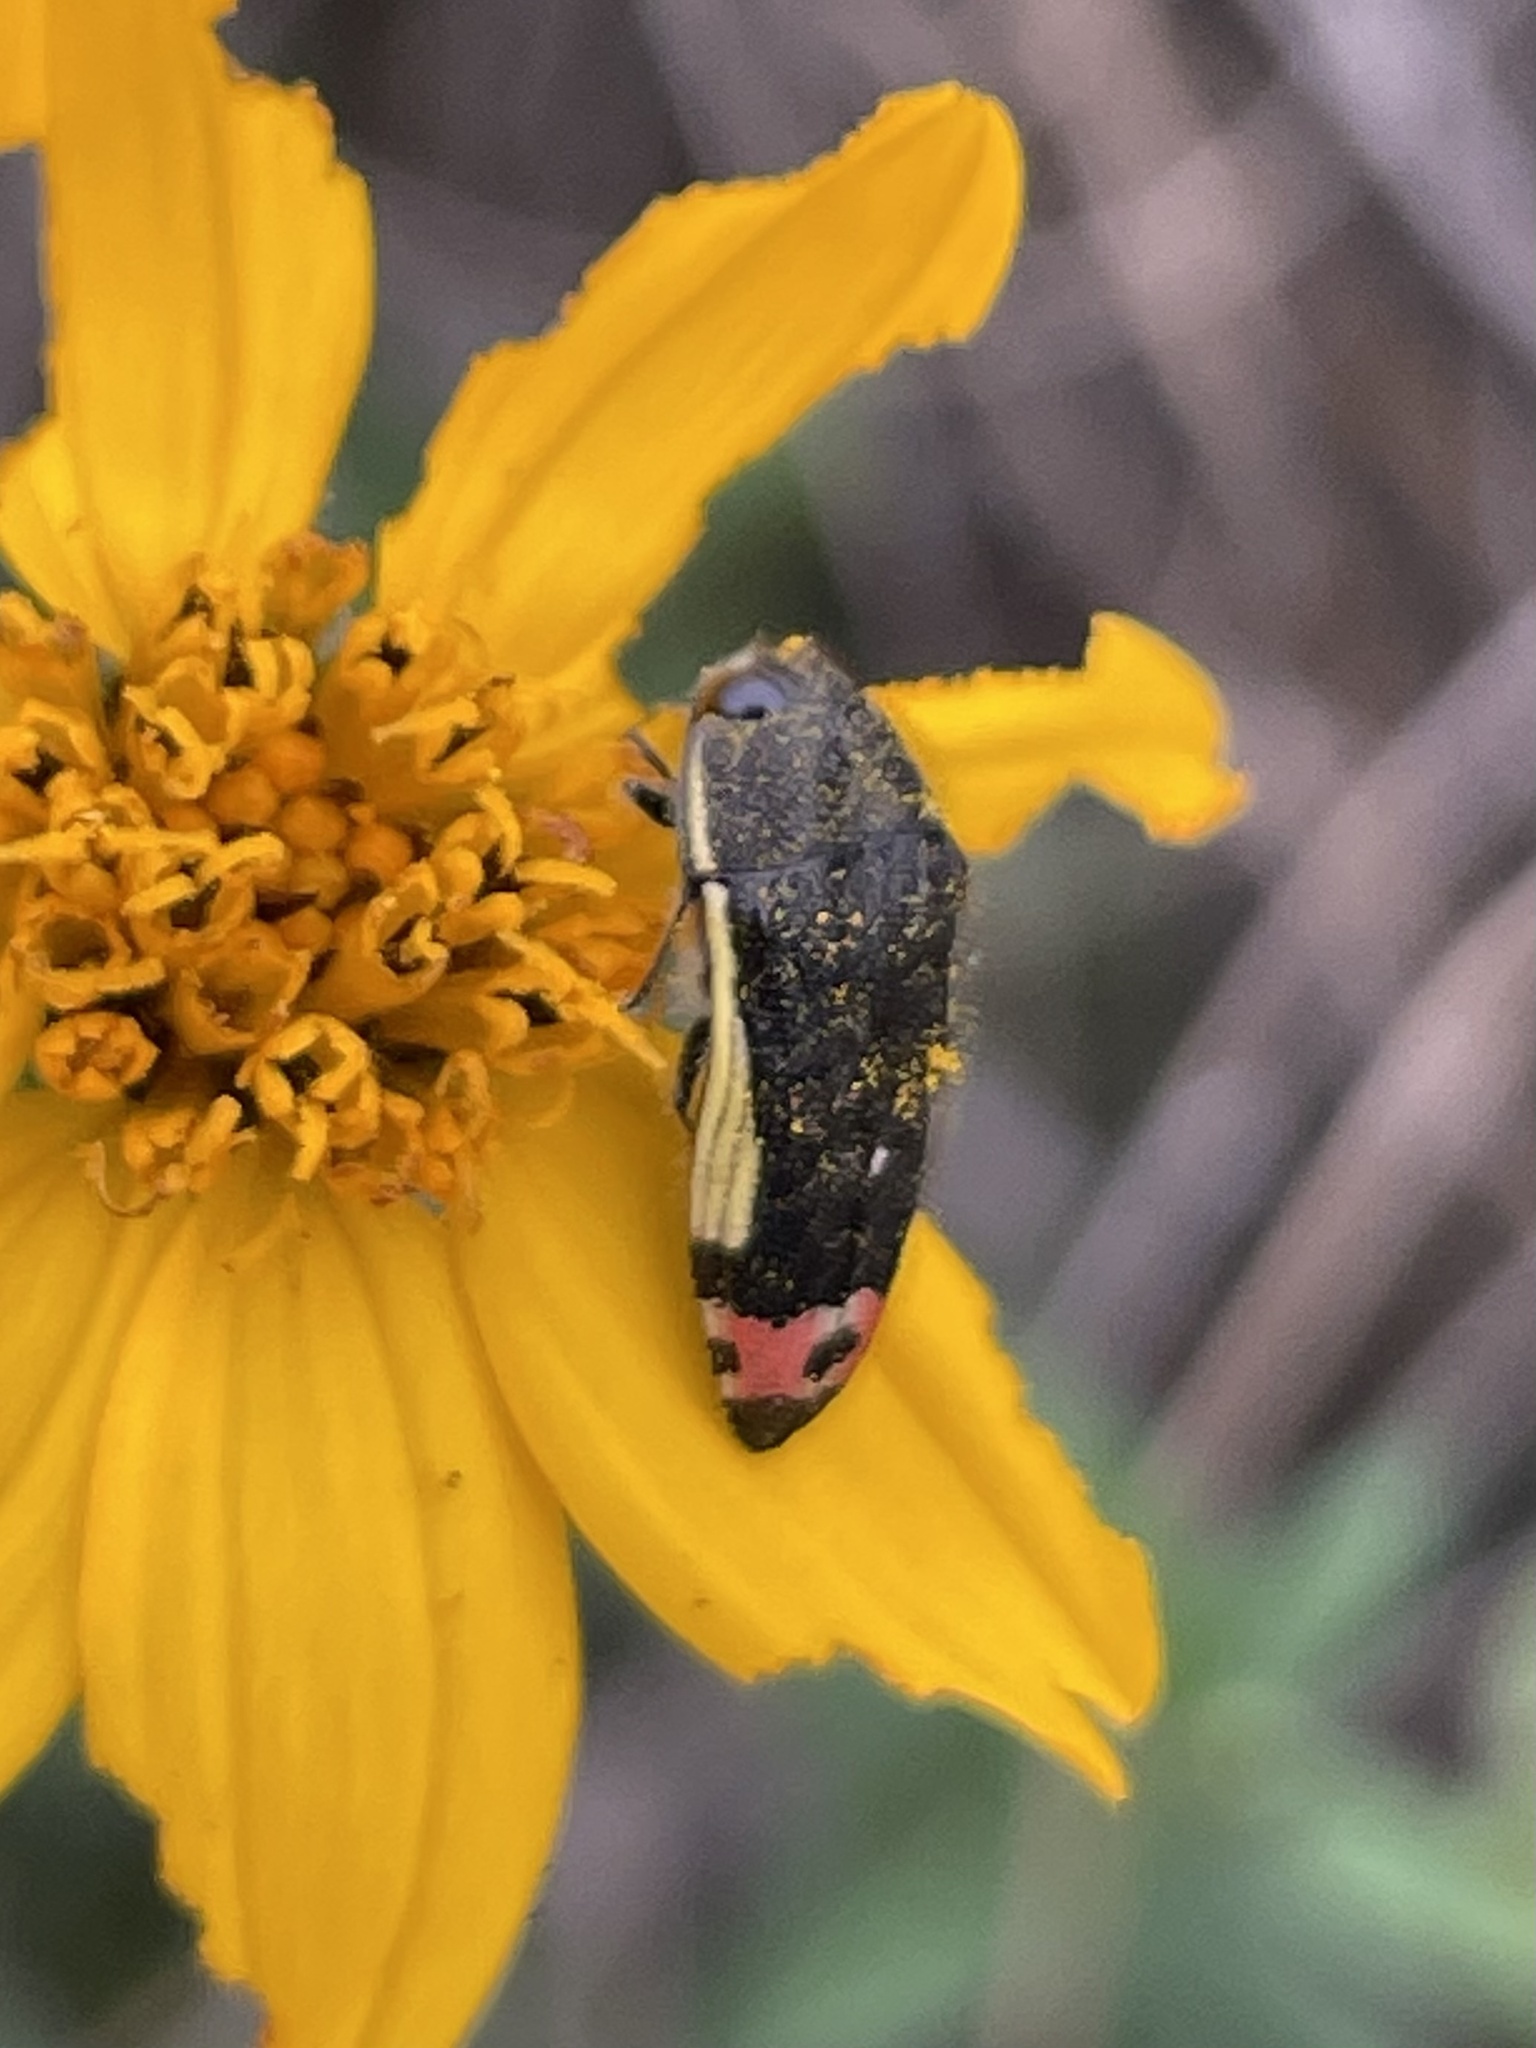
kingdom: Animalia
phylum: Arthropoda
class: Insecta
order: Coleoptera
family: Buprestidae
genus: Acmaeodera
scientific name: Acmaeodera flavomarginata
